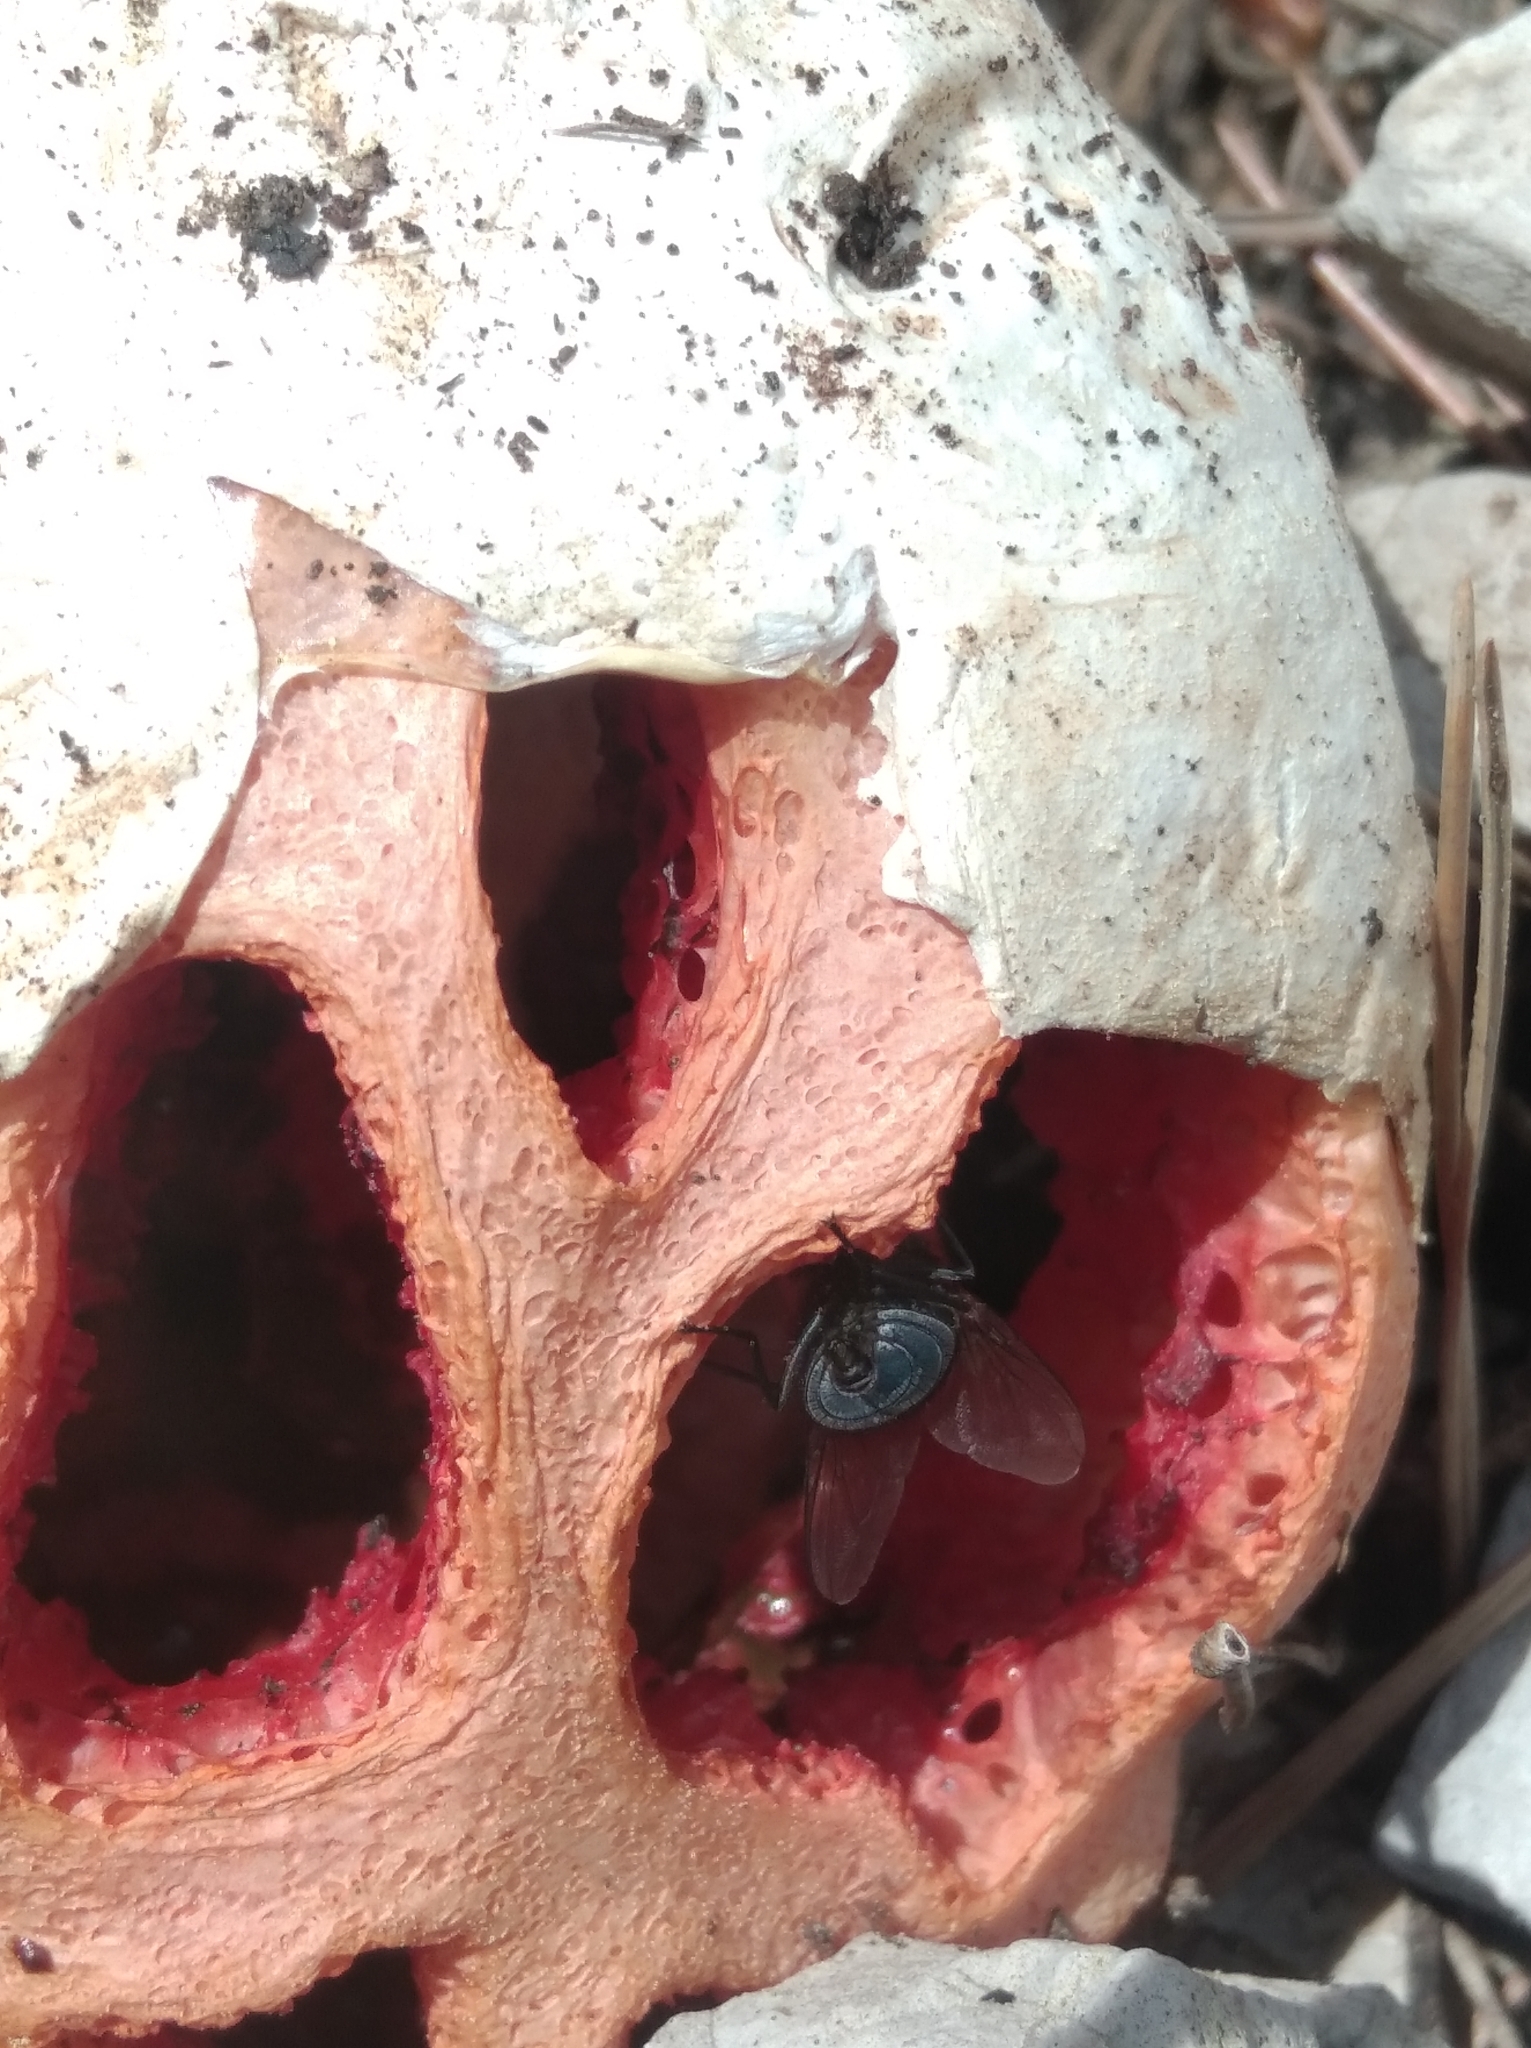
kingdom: Fungi
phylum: Basidiomycota
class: Agaricomycetes
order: Phallales
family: Phallaceae
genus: Clathrus
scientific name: Clathrus ruber
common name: Red cage
